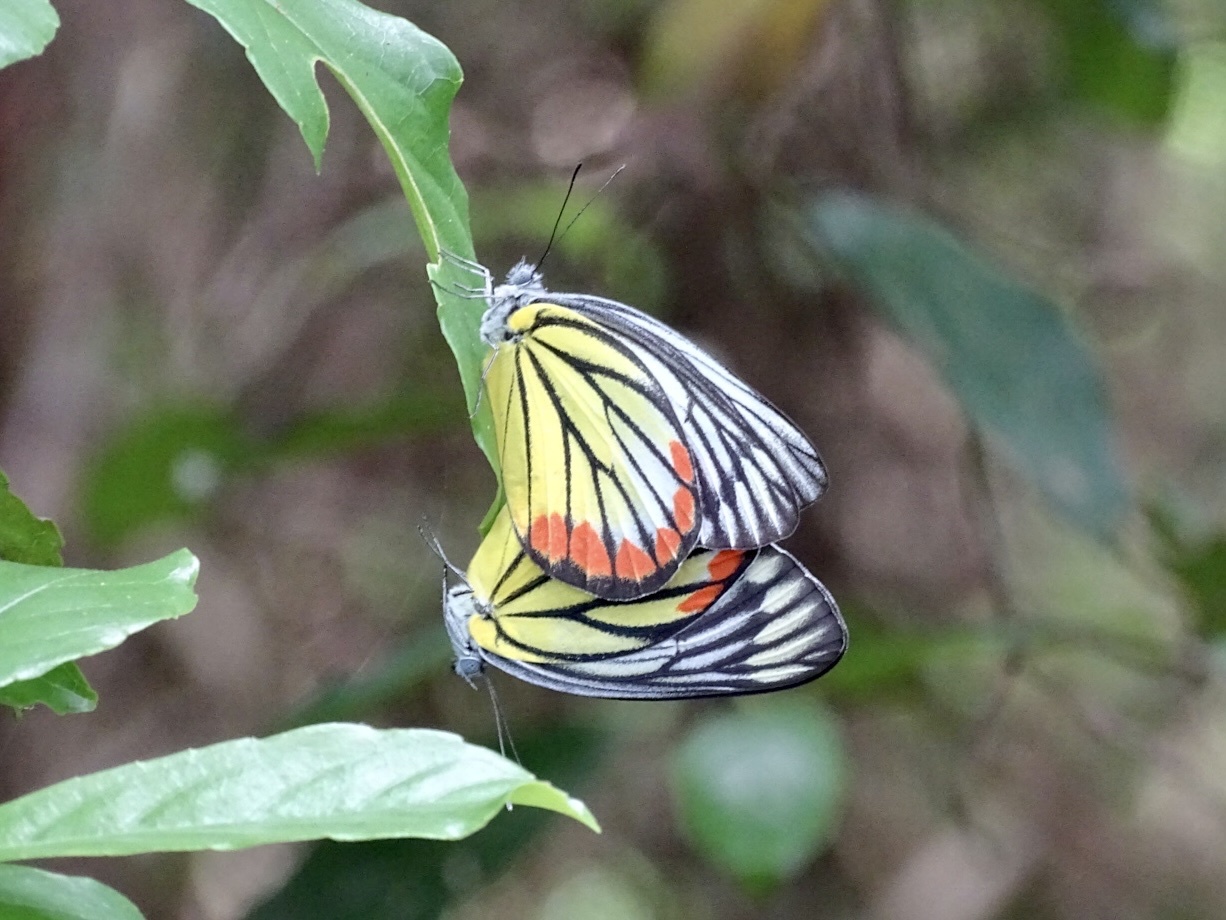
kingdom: Animalia
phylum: Arthropoda
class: Insecta
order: Lepidoptera
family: Pieridae
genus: Delias
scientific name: Delias hyparete
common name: Painted jezebel
